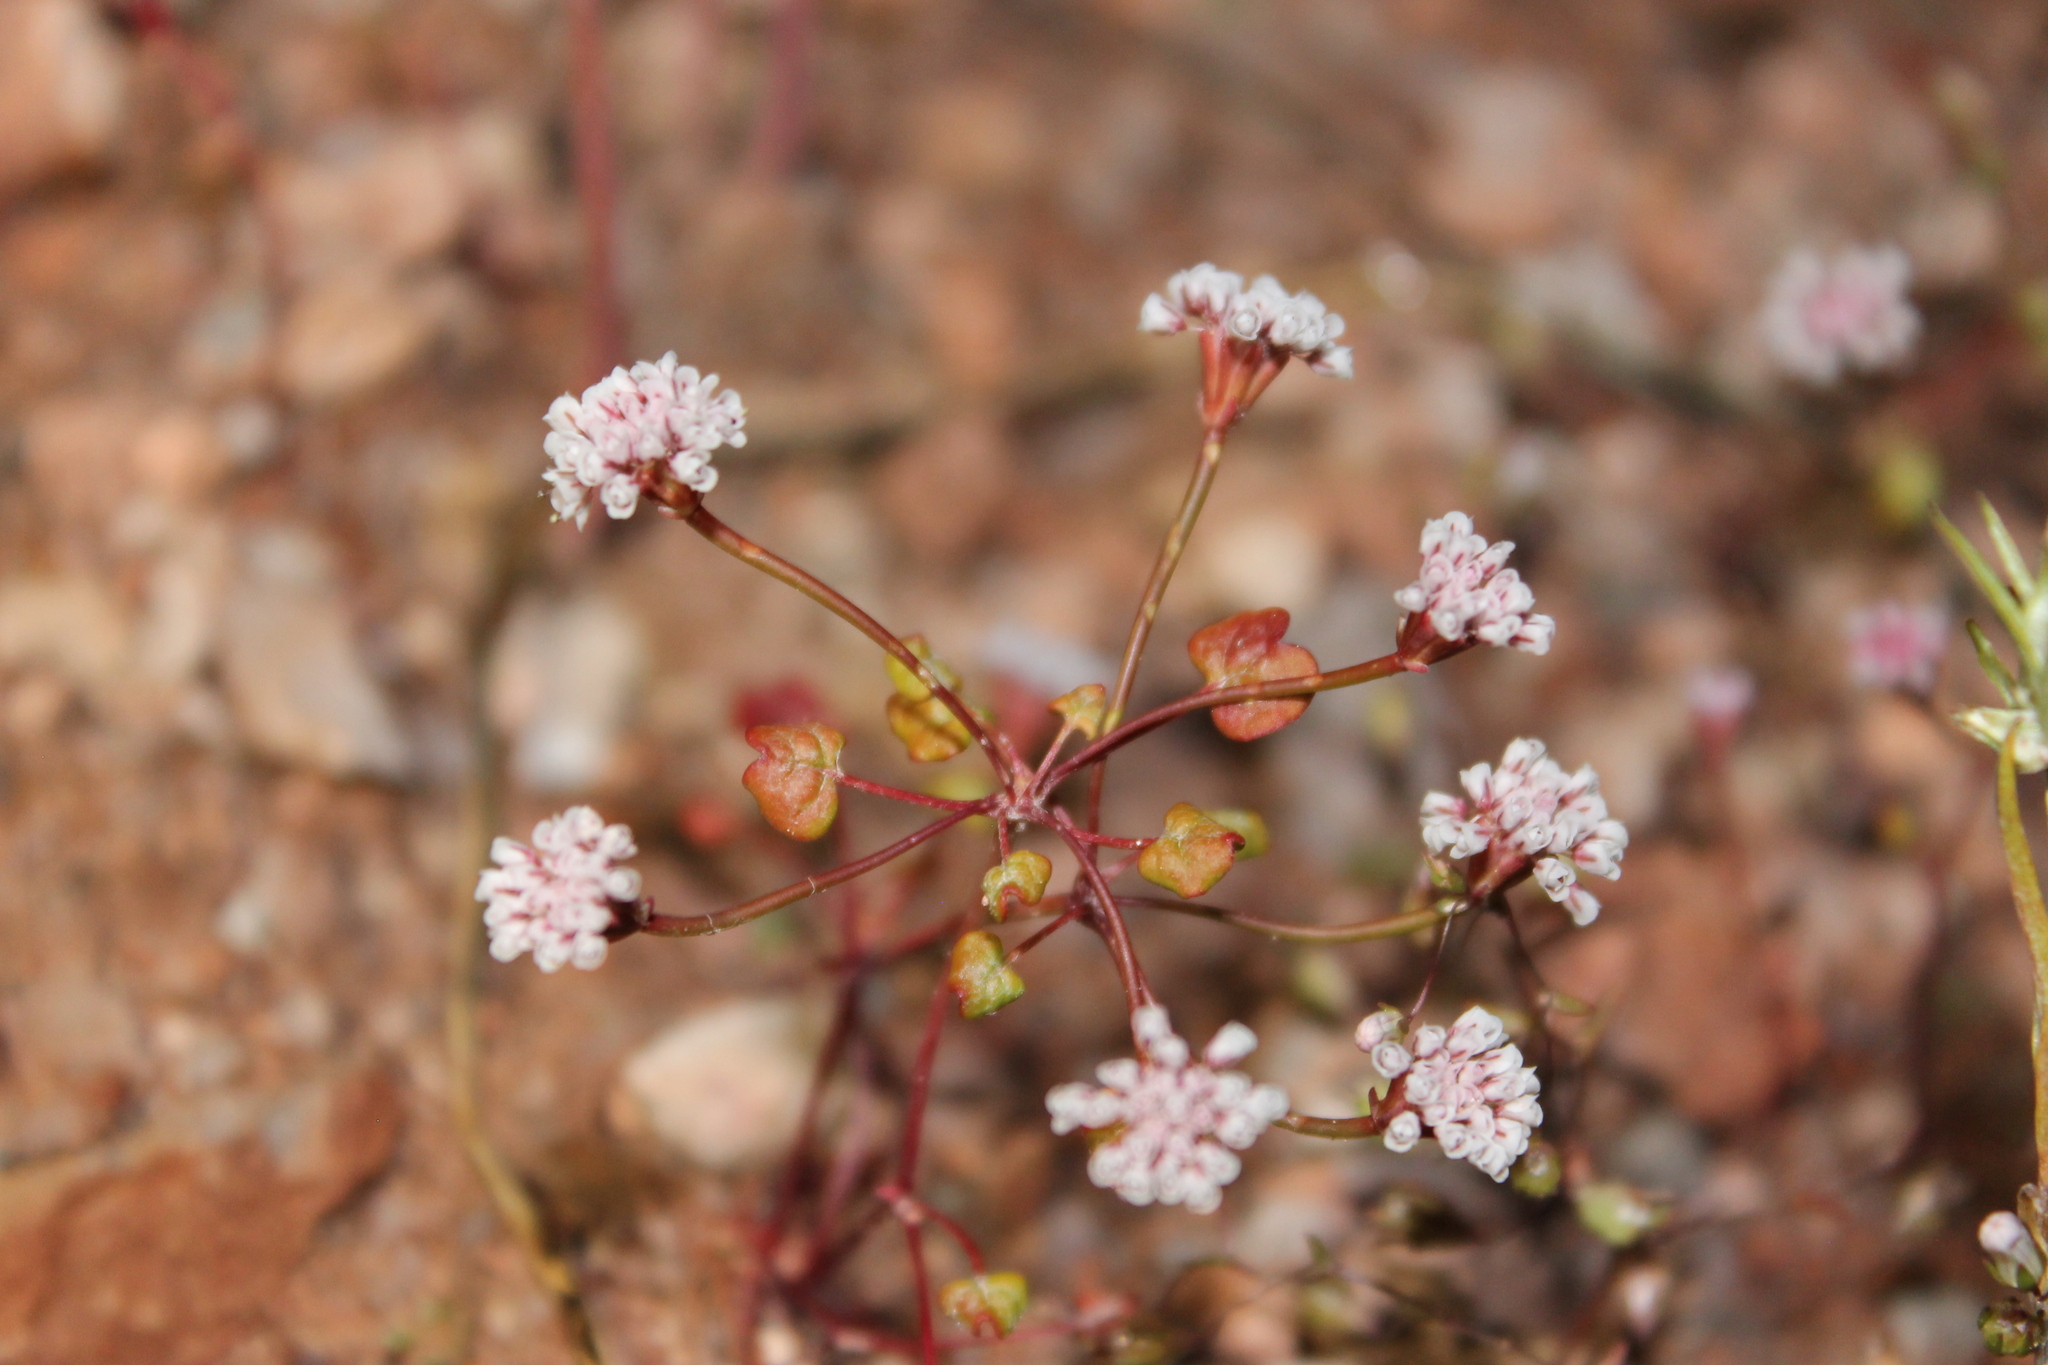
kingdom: Plantae
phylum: Tracheophyta
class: Magnoliopsida
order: Caryophyllales
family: Polygonaceae
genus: Eriogonum
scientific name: Eriogonum nortonii
